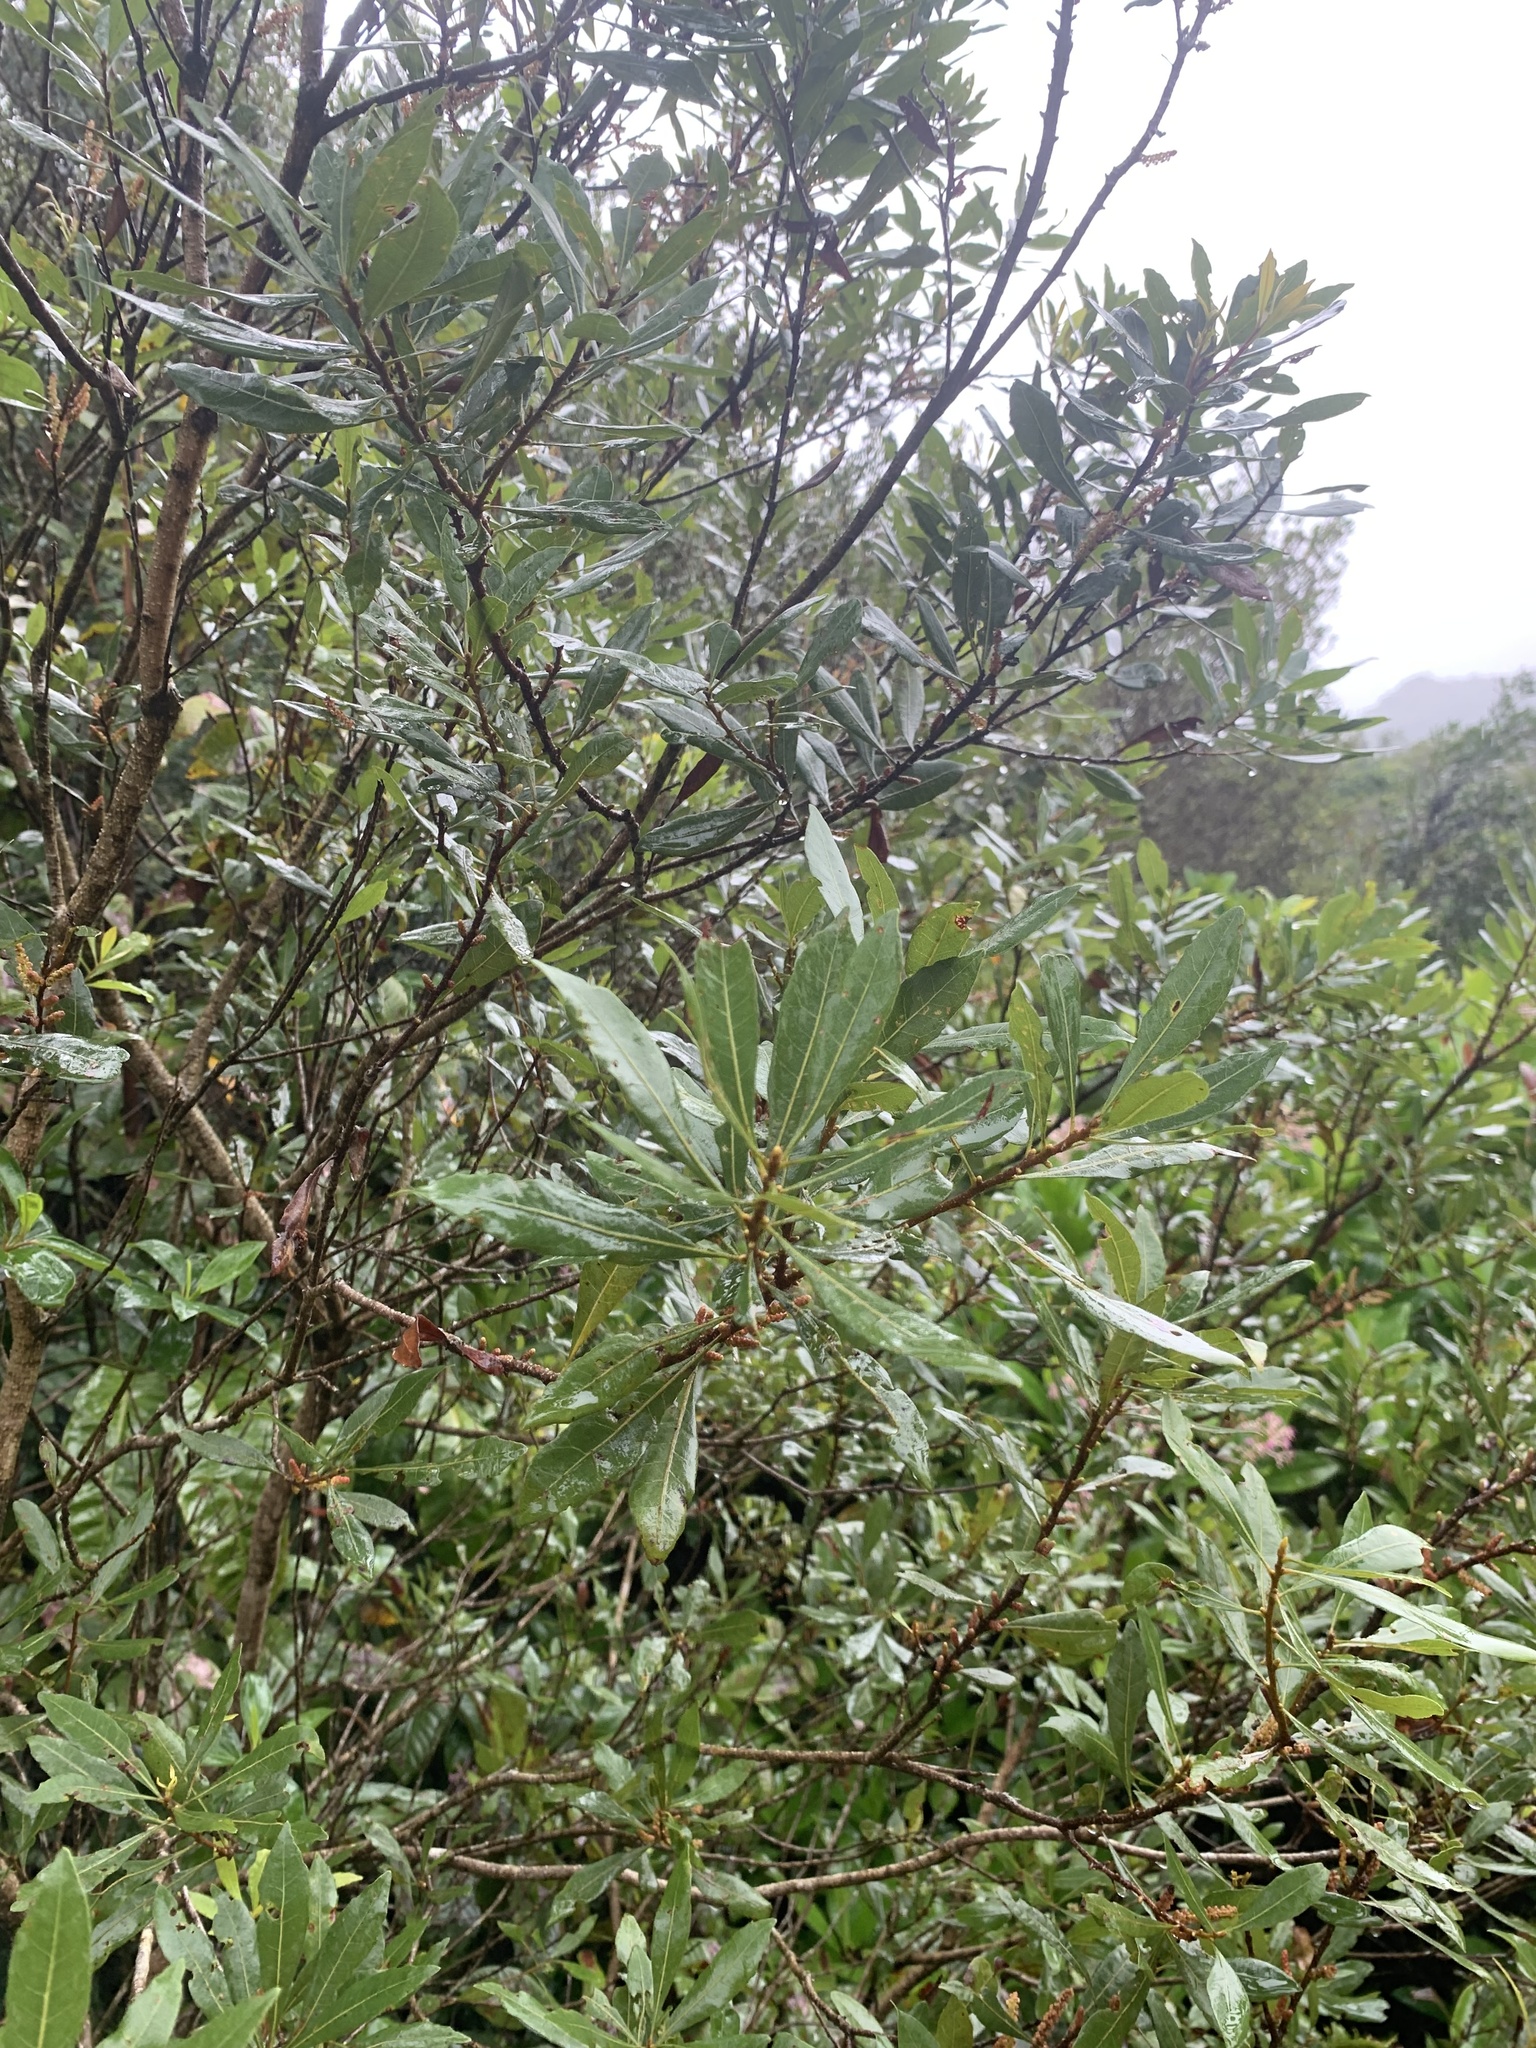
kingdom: Plantae
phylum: Tracheophyta
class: Magnoliopsida
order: Fagales
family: Myricaceae
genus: Morella
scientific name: Morella cerifera
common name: Wax myrtle
